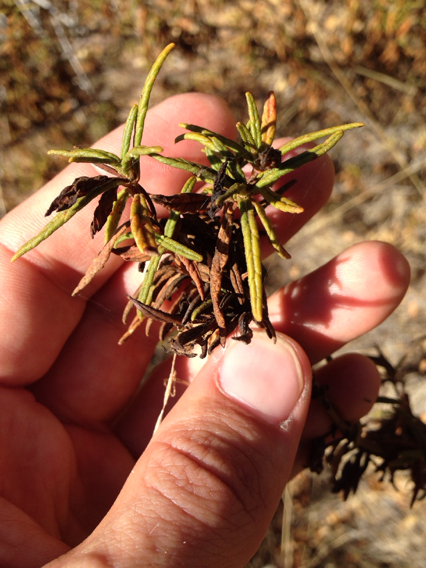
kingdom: Plantae
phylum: Tracheophyta
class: Magnoliopsida
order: Lamiales
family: Phrymaceae
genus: Diplacus
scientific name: Diplacus aurantiacus
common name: Bush monkey-flower
